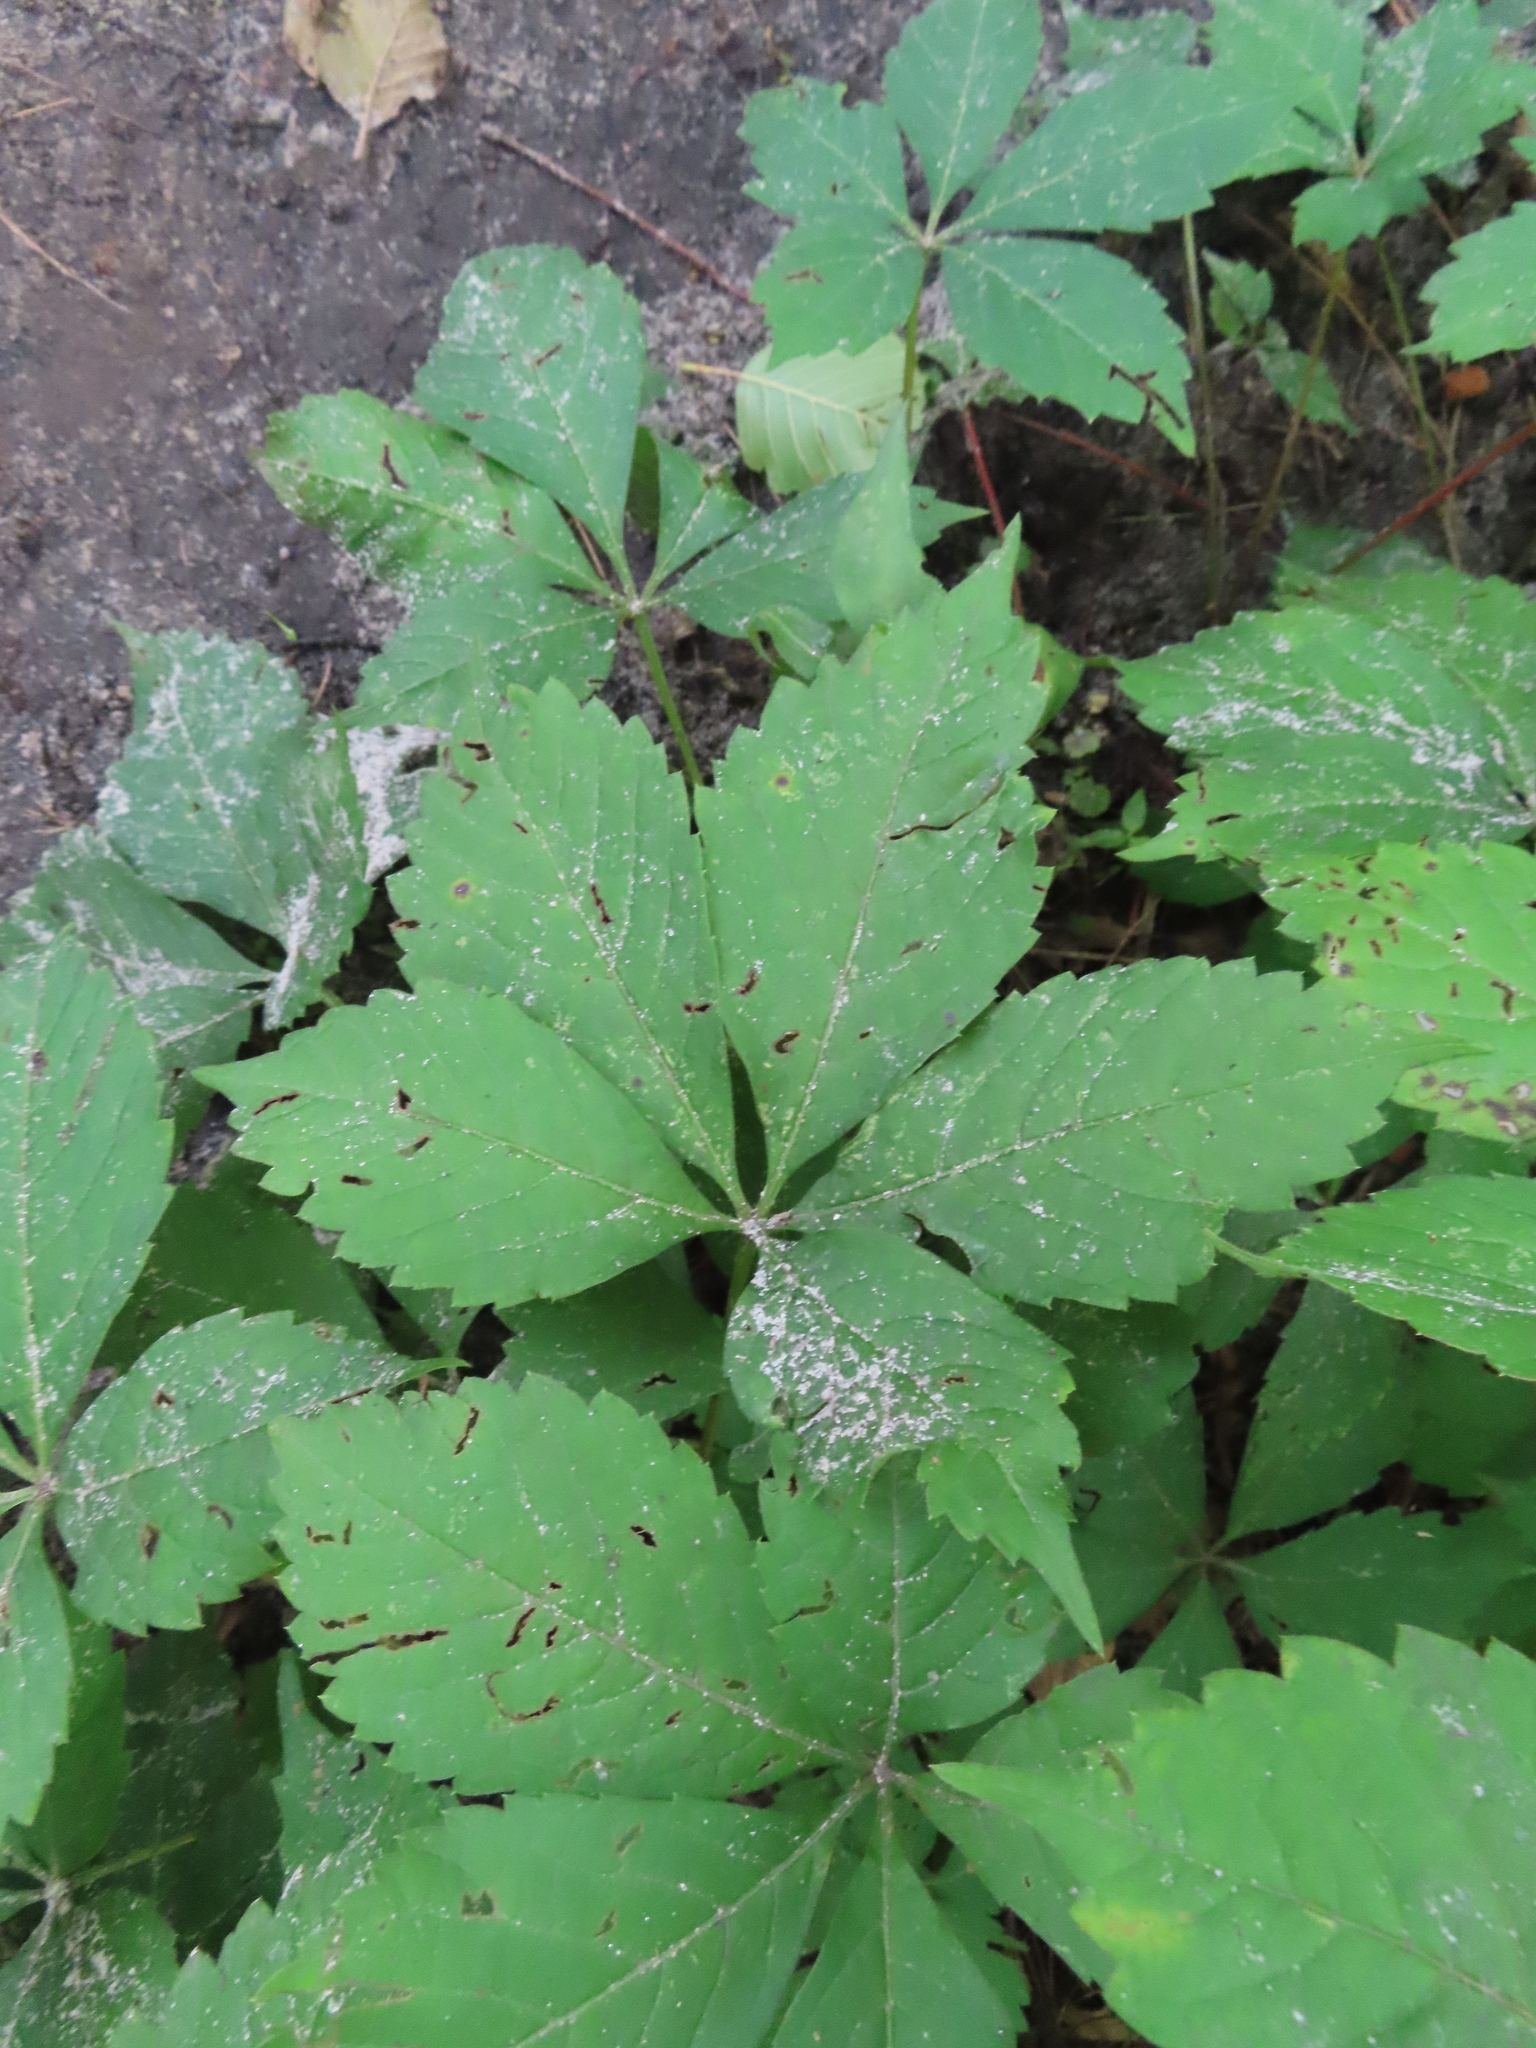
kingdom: Plantae
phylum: Tracheophyta
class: Magnoliopsida
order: Vitales
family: Vitaceae
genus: Parthenocissus
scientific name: Parthenocissus quinquefolia
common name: Virginia-creeper
